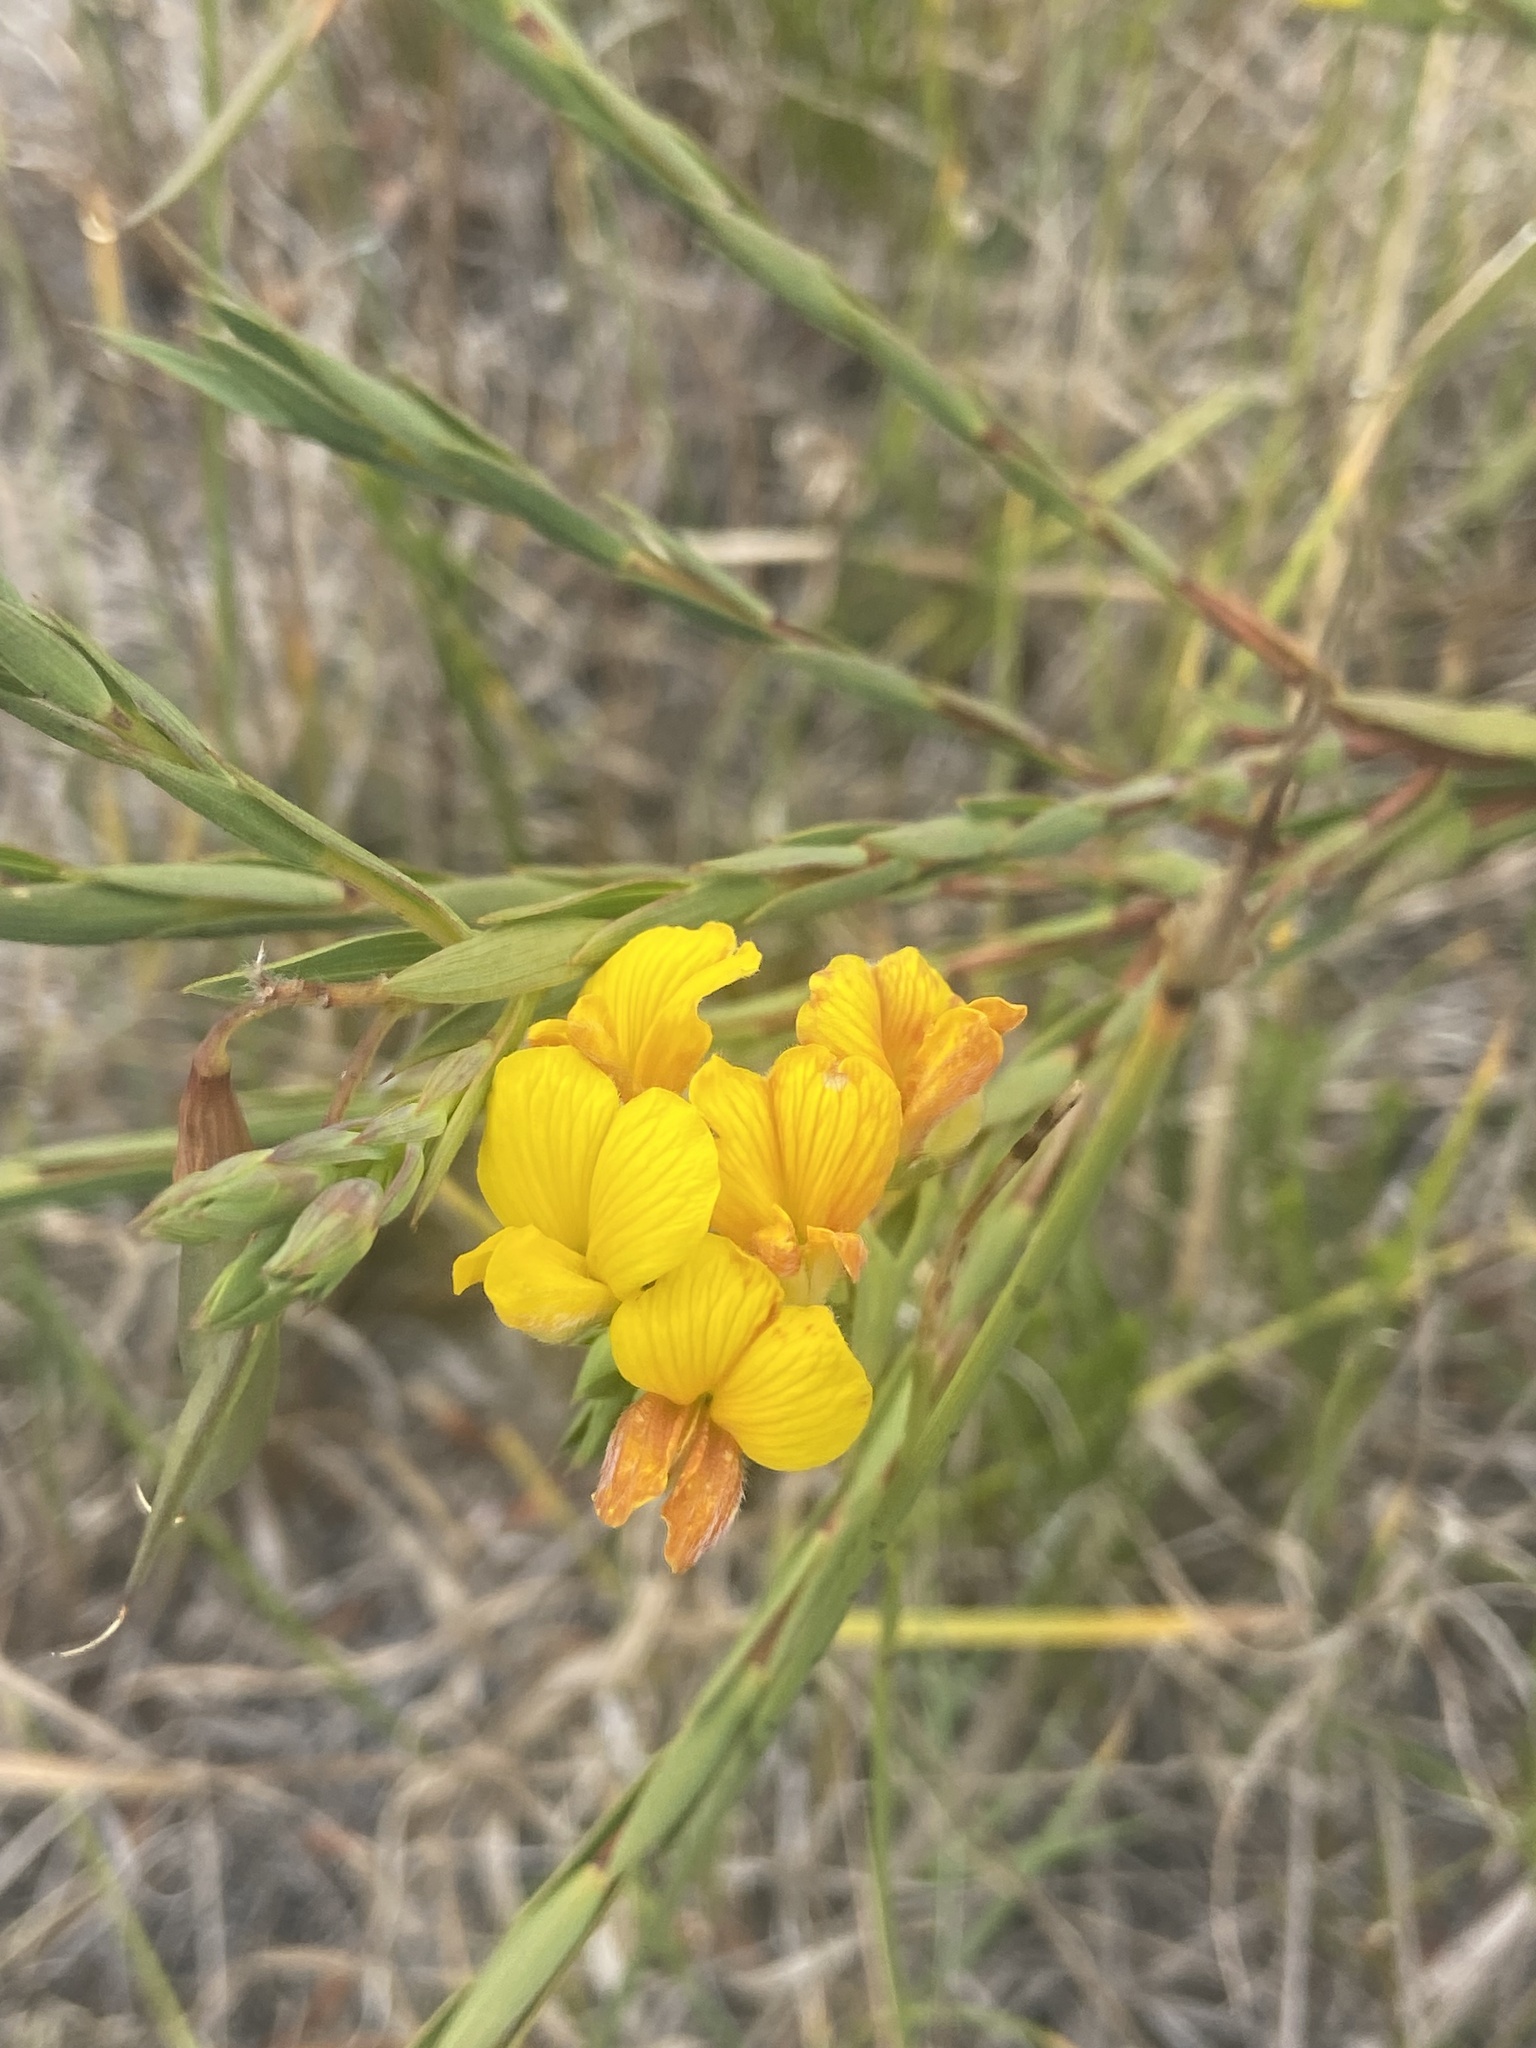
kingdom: Plantae
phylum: Tracheophyta
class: Magnoliopsida
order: Fabales
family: Fabaceae
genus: Aspalathus
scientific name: Aspalathus angustifolia
